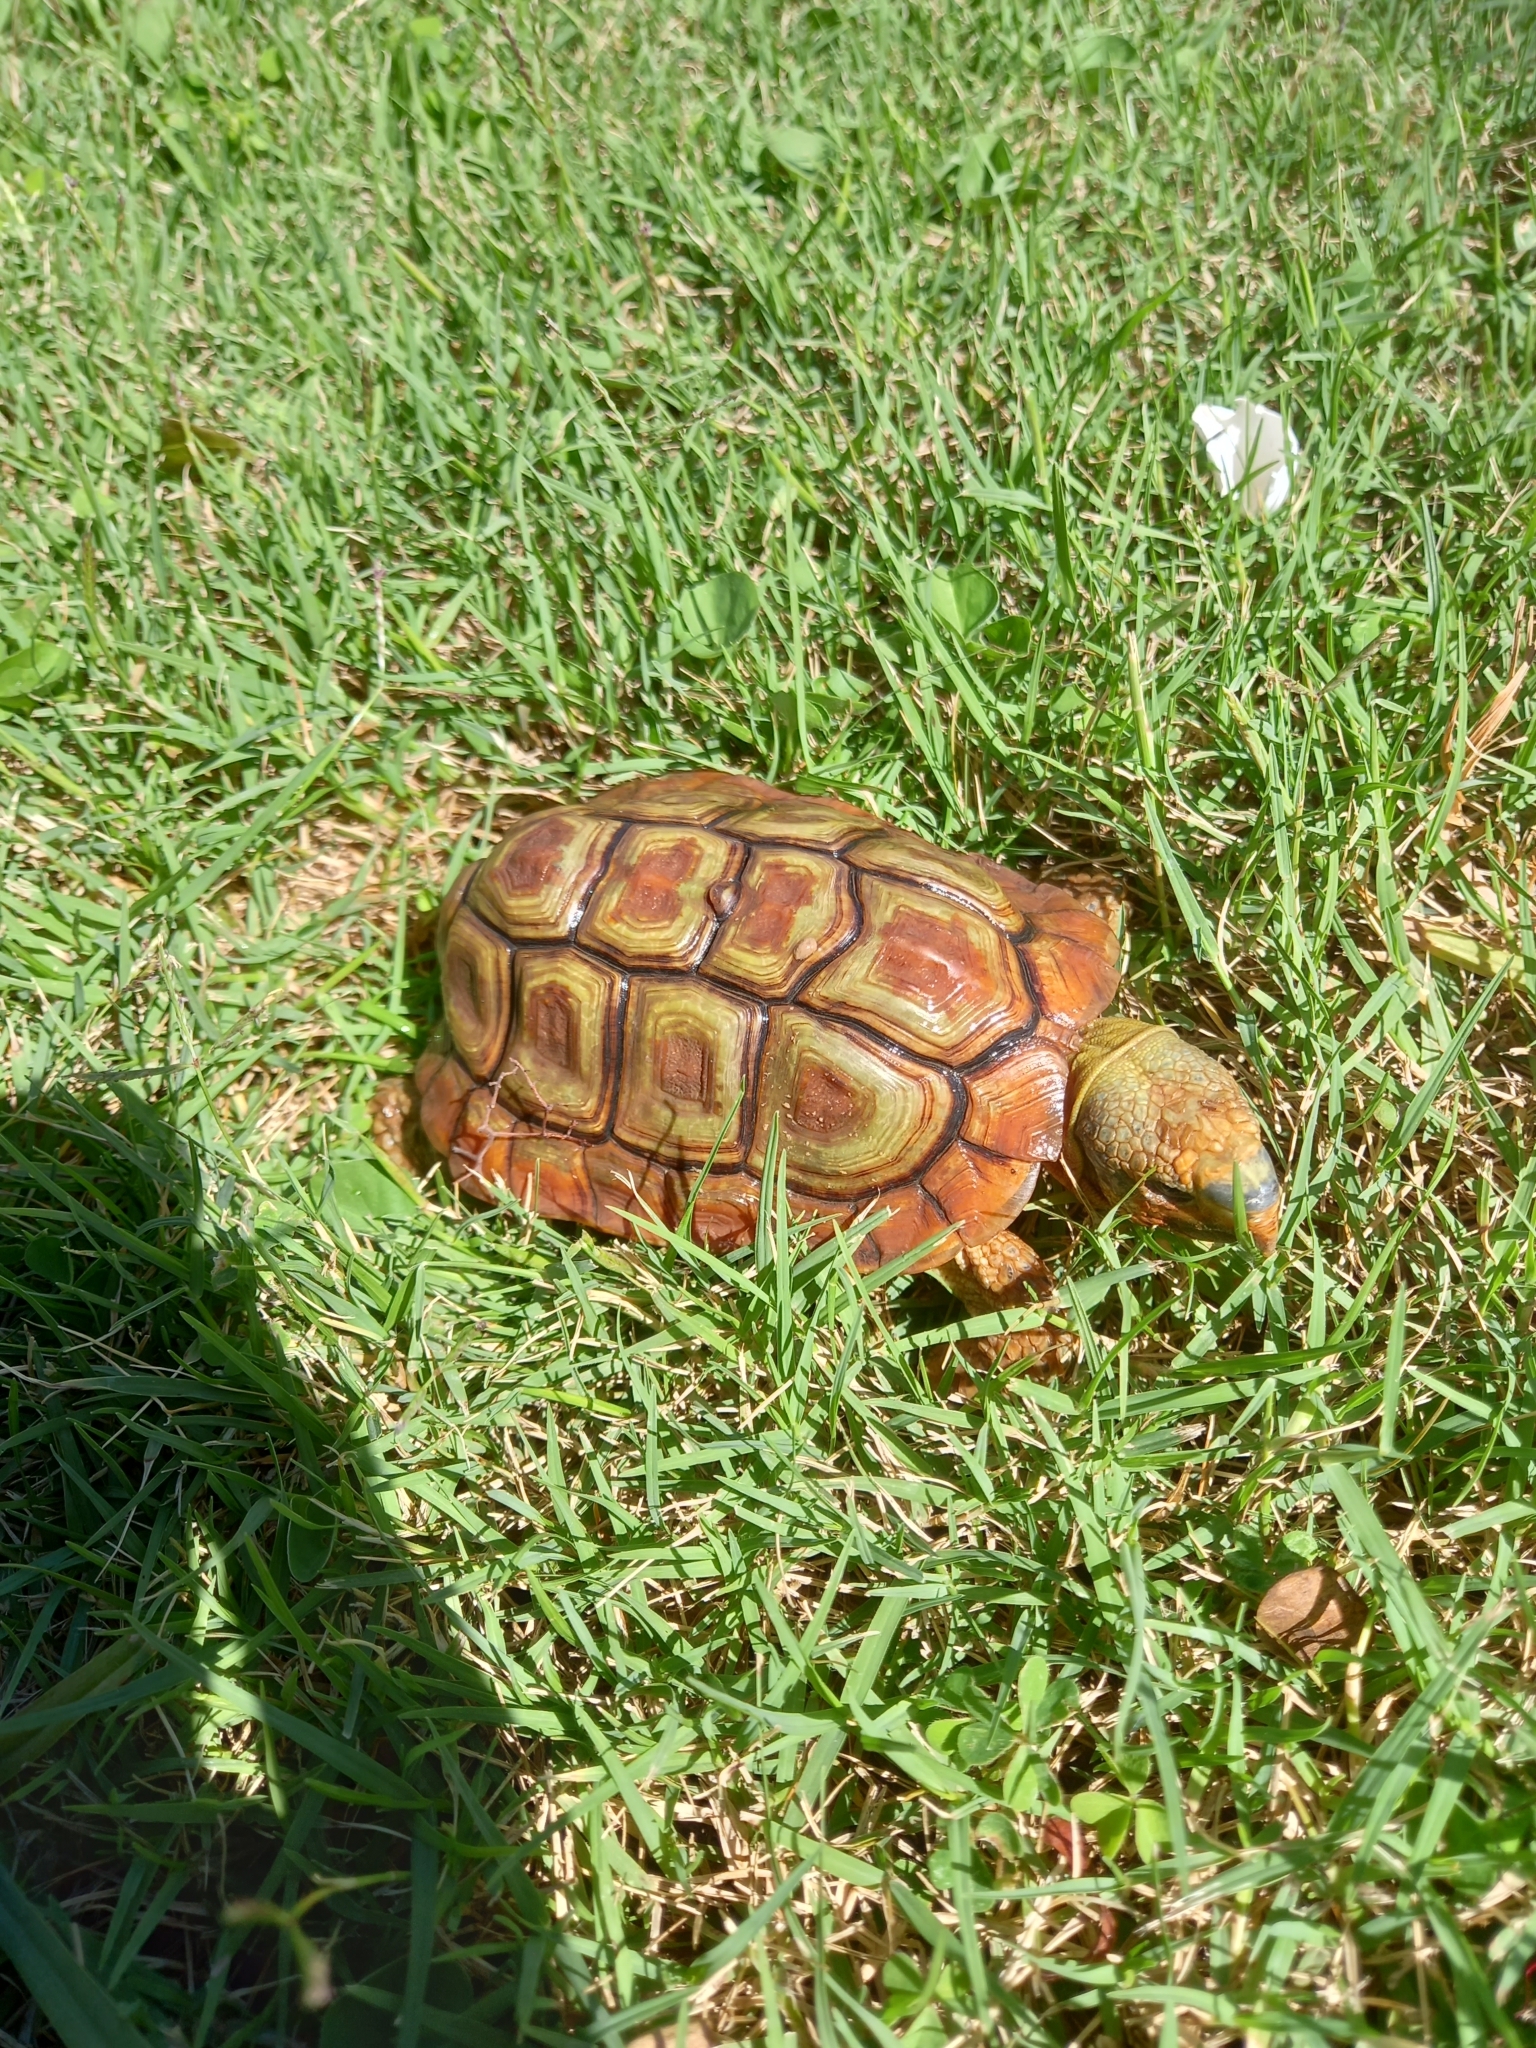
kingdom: Animalia
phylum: Chordata
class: Testudines
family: Testudinidae
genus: Homopus
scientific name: Homopus areolatus
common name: Parrot-beaked tortoise
